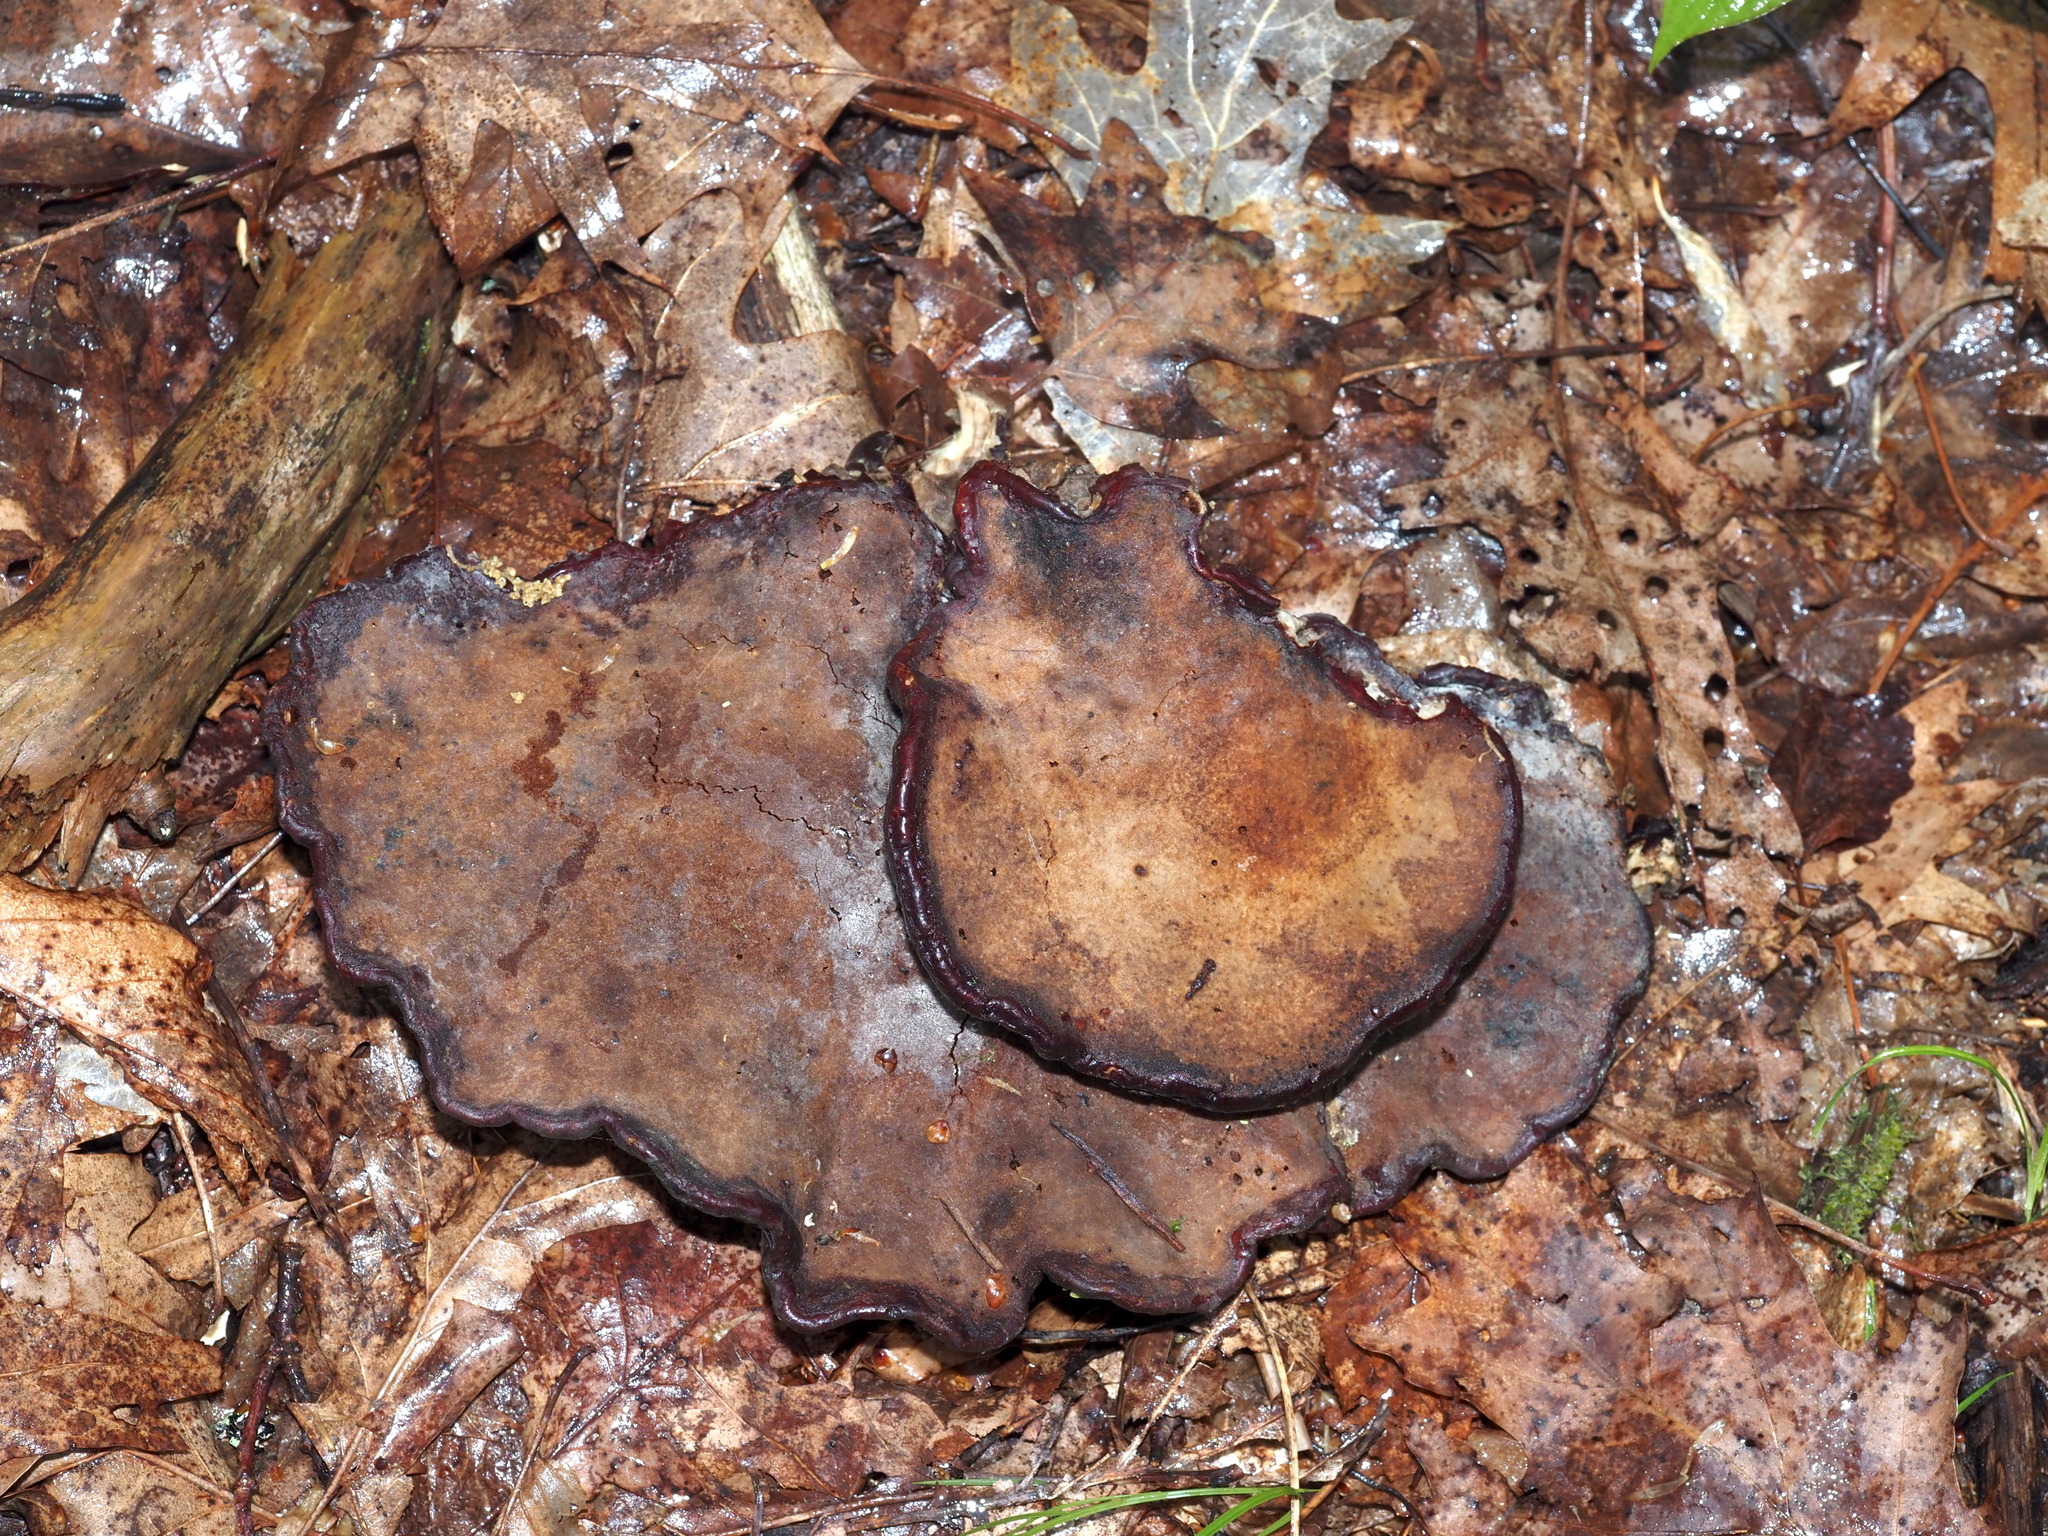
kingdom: Fungi
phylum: Basidiomycota
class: Agaricomycetes
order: Polyporales
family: Polyporaceae
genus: Ganoderma
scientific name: Ganoderma tsugae
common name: Hemlock varnish shelf
